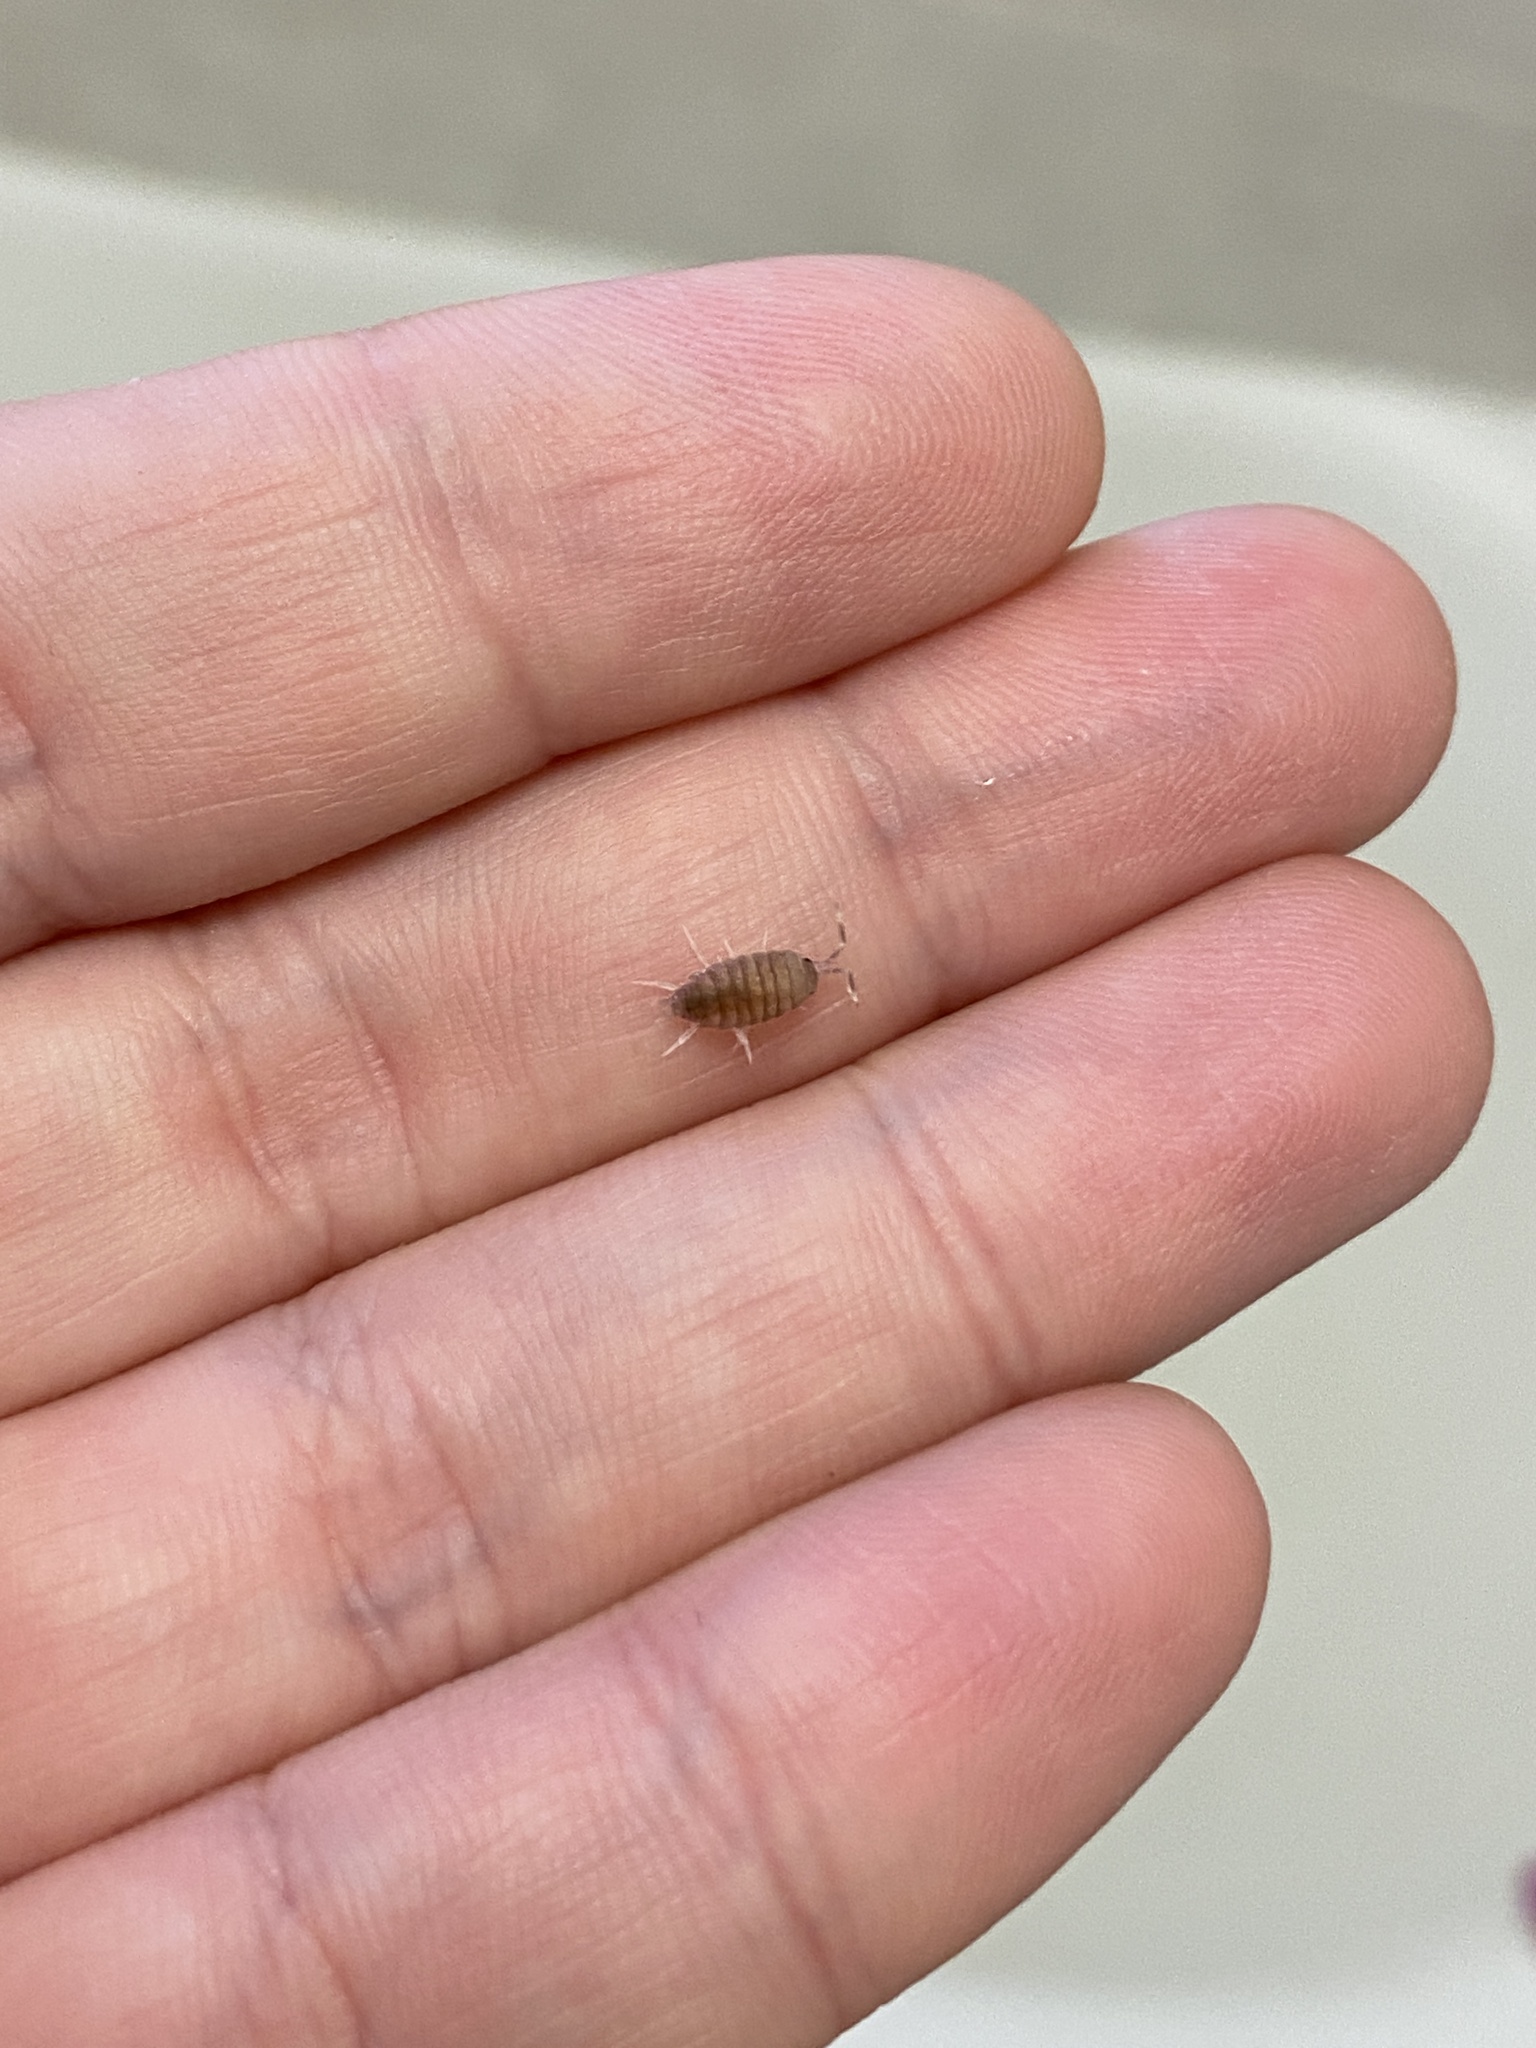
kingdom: Animalia
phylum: Arthropoda
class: Malacostraca
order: Isopoda
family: Porcellionidae
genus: Porcellionides
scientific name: Porcellionides pruinosus
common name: Plum woodlouse
